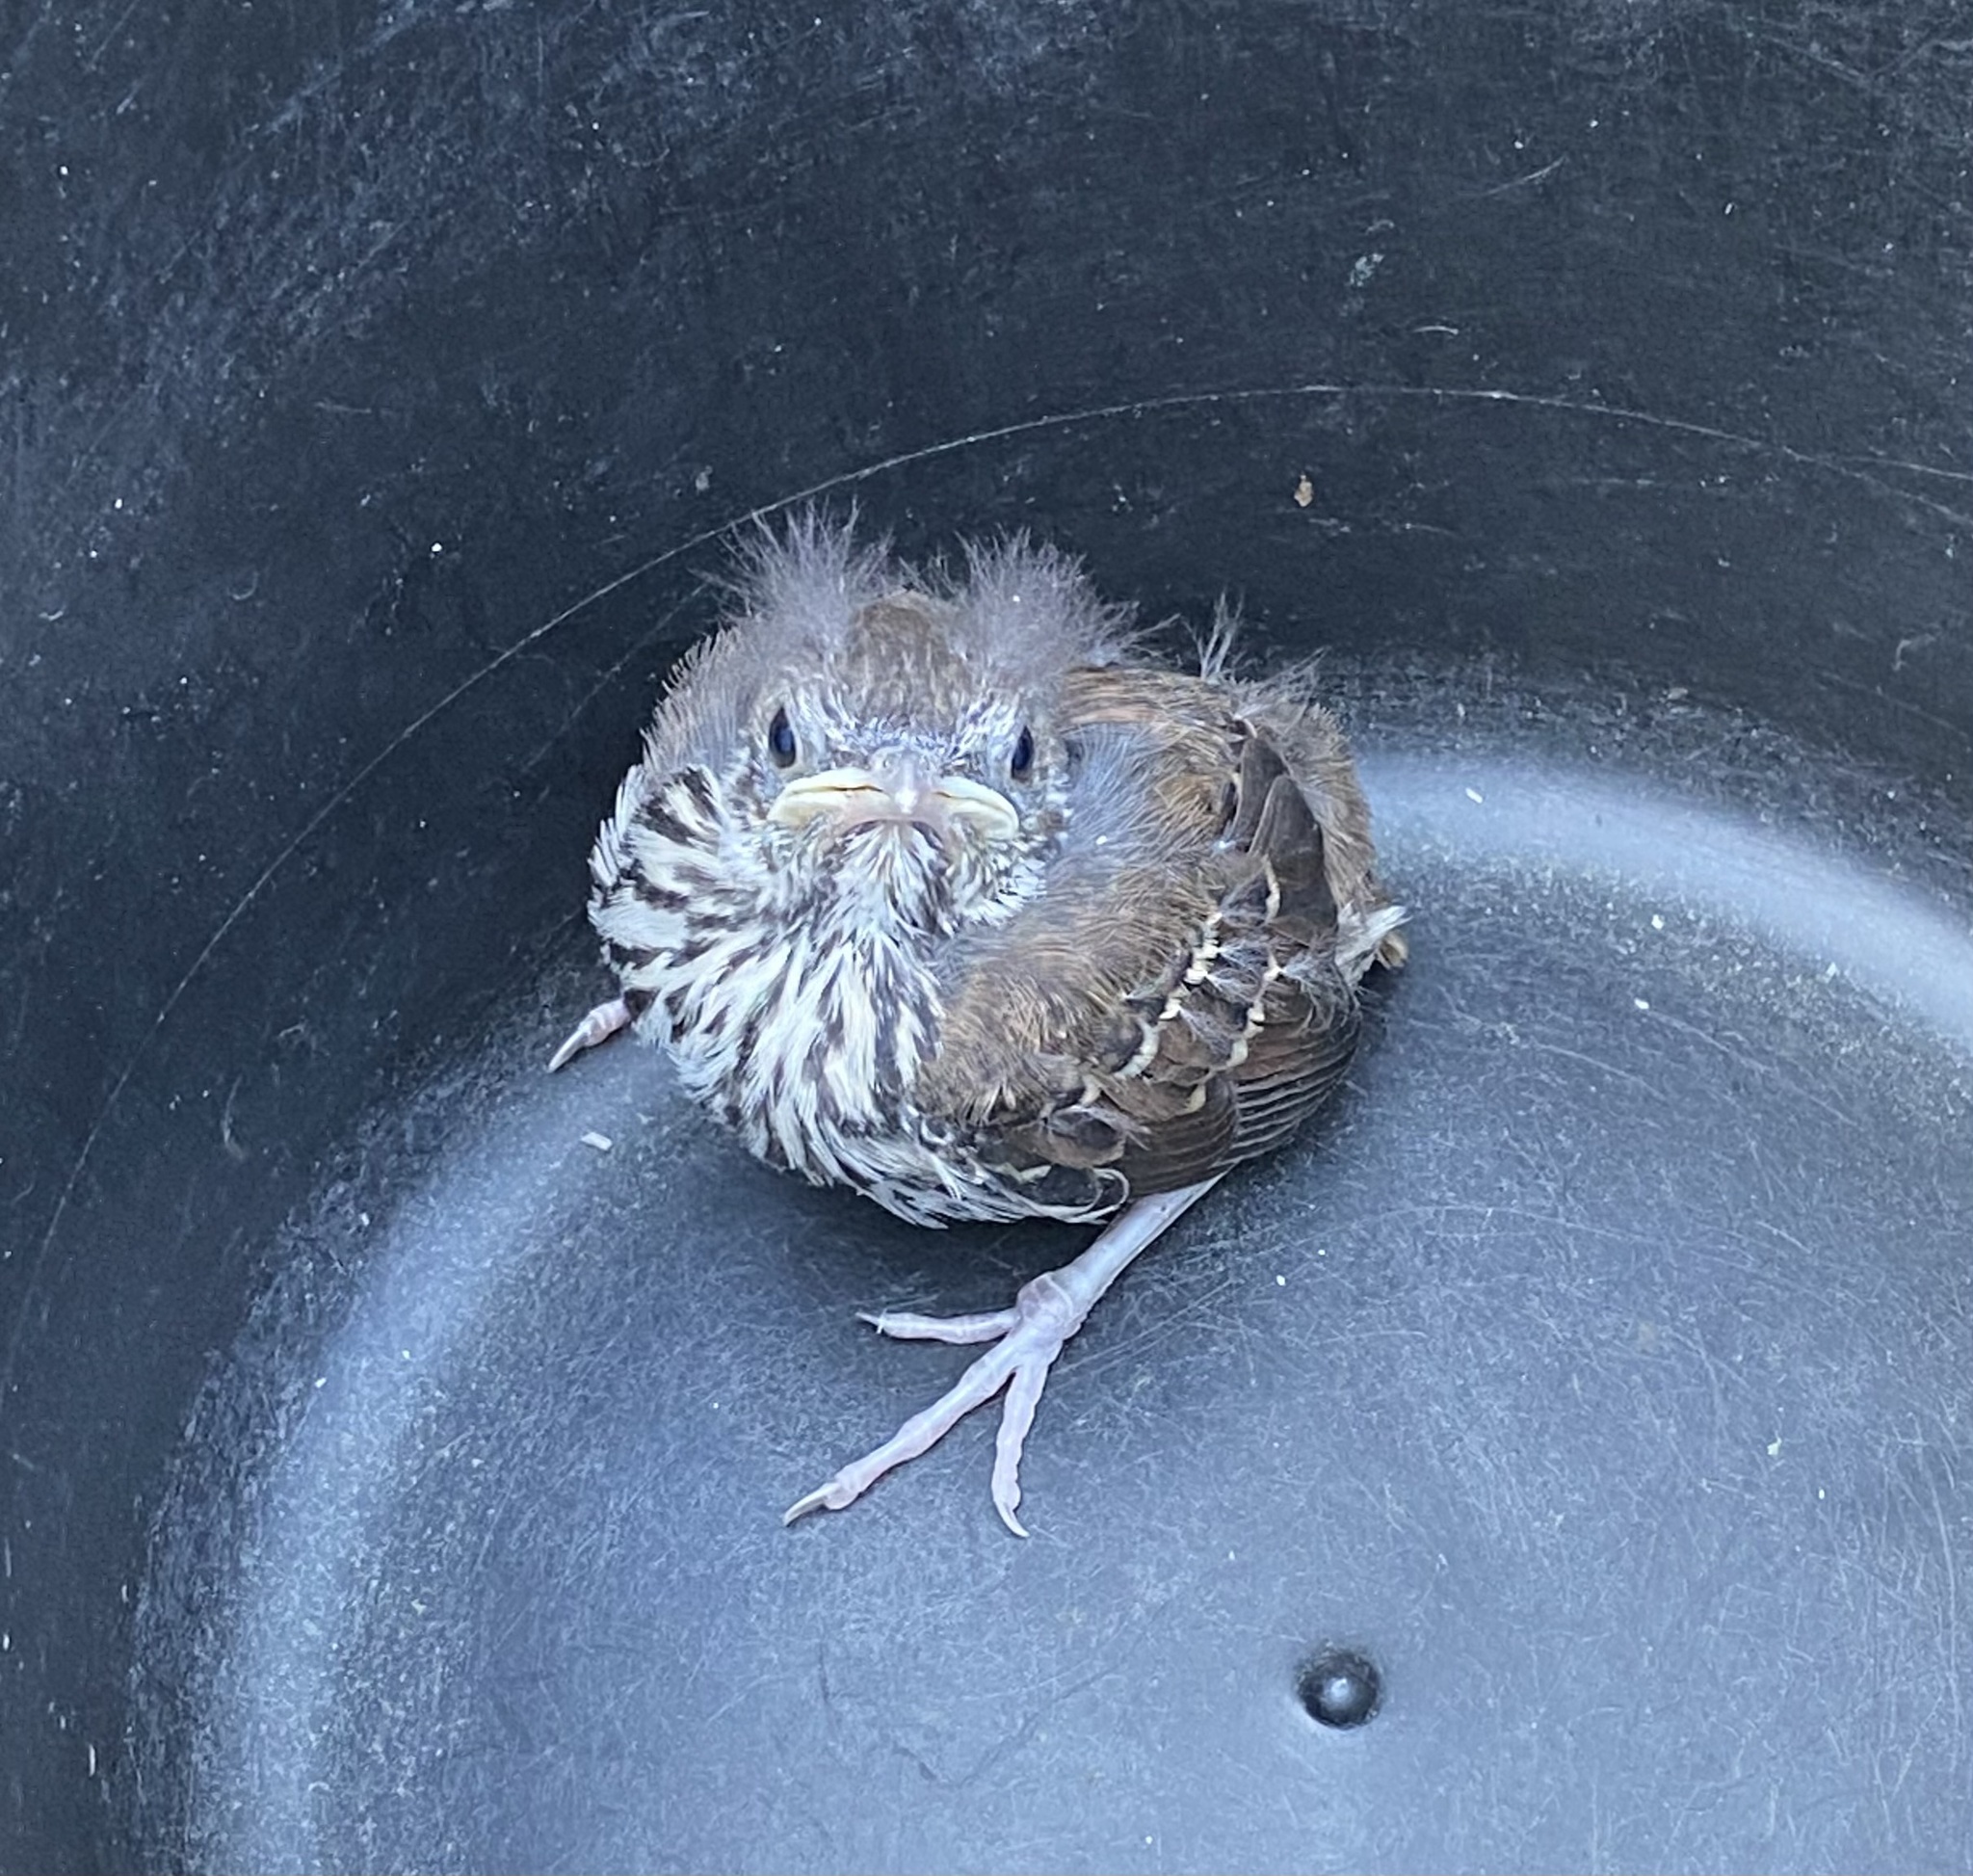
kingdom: Animalia
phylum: Chordata
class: Aves
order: Passeriformes
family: Mimidae
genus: Toxostoma
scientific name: Toxostoma rufum
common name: Brown thrasher
